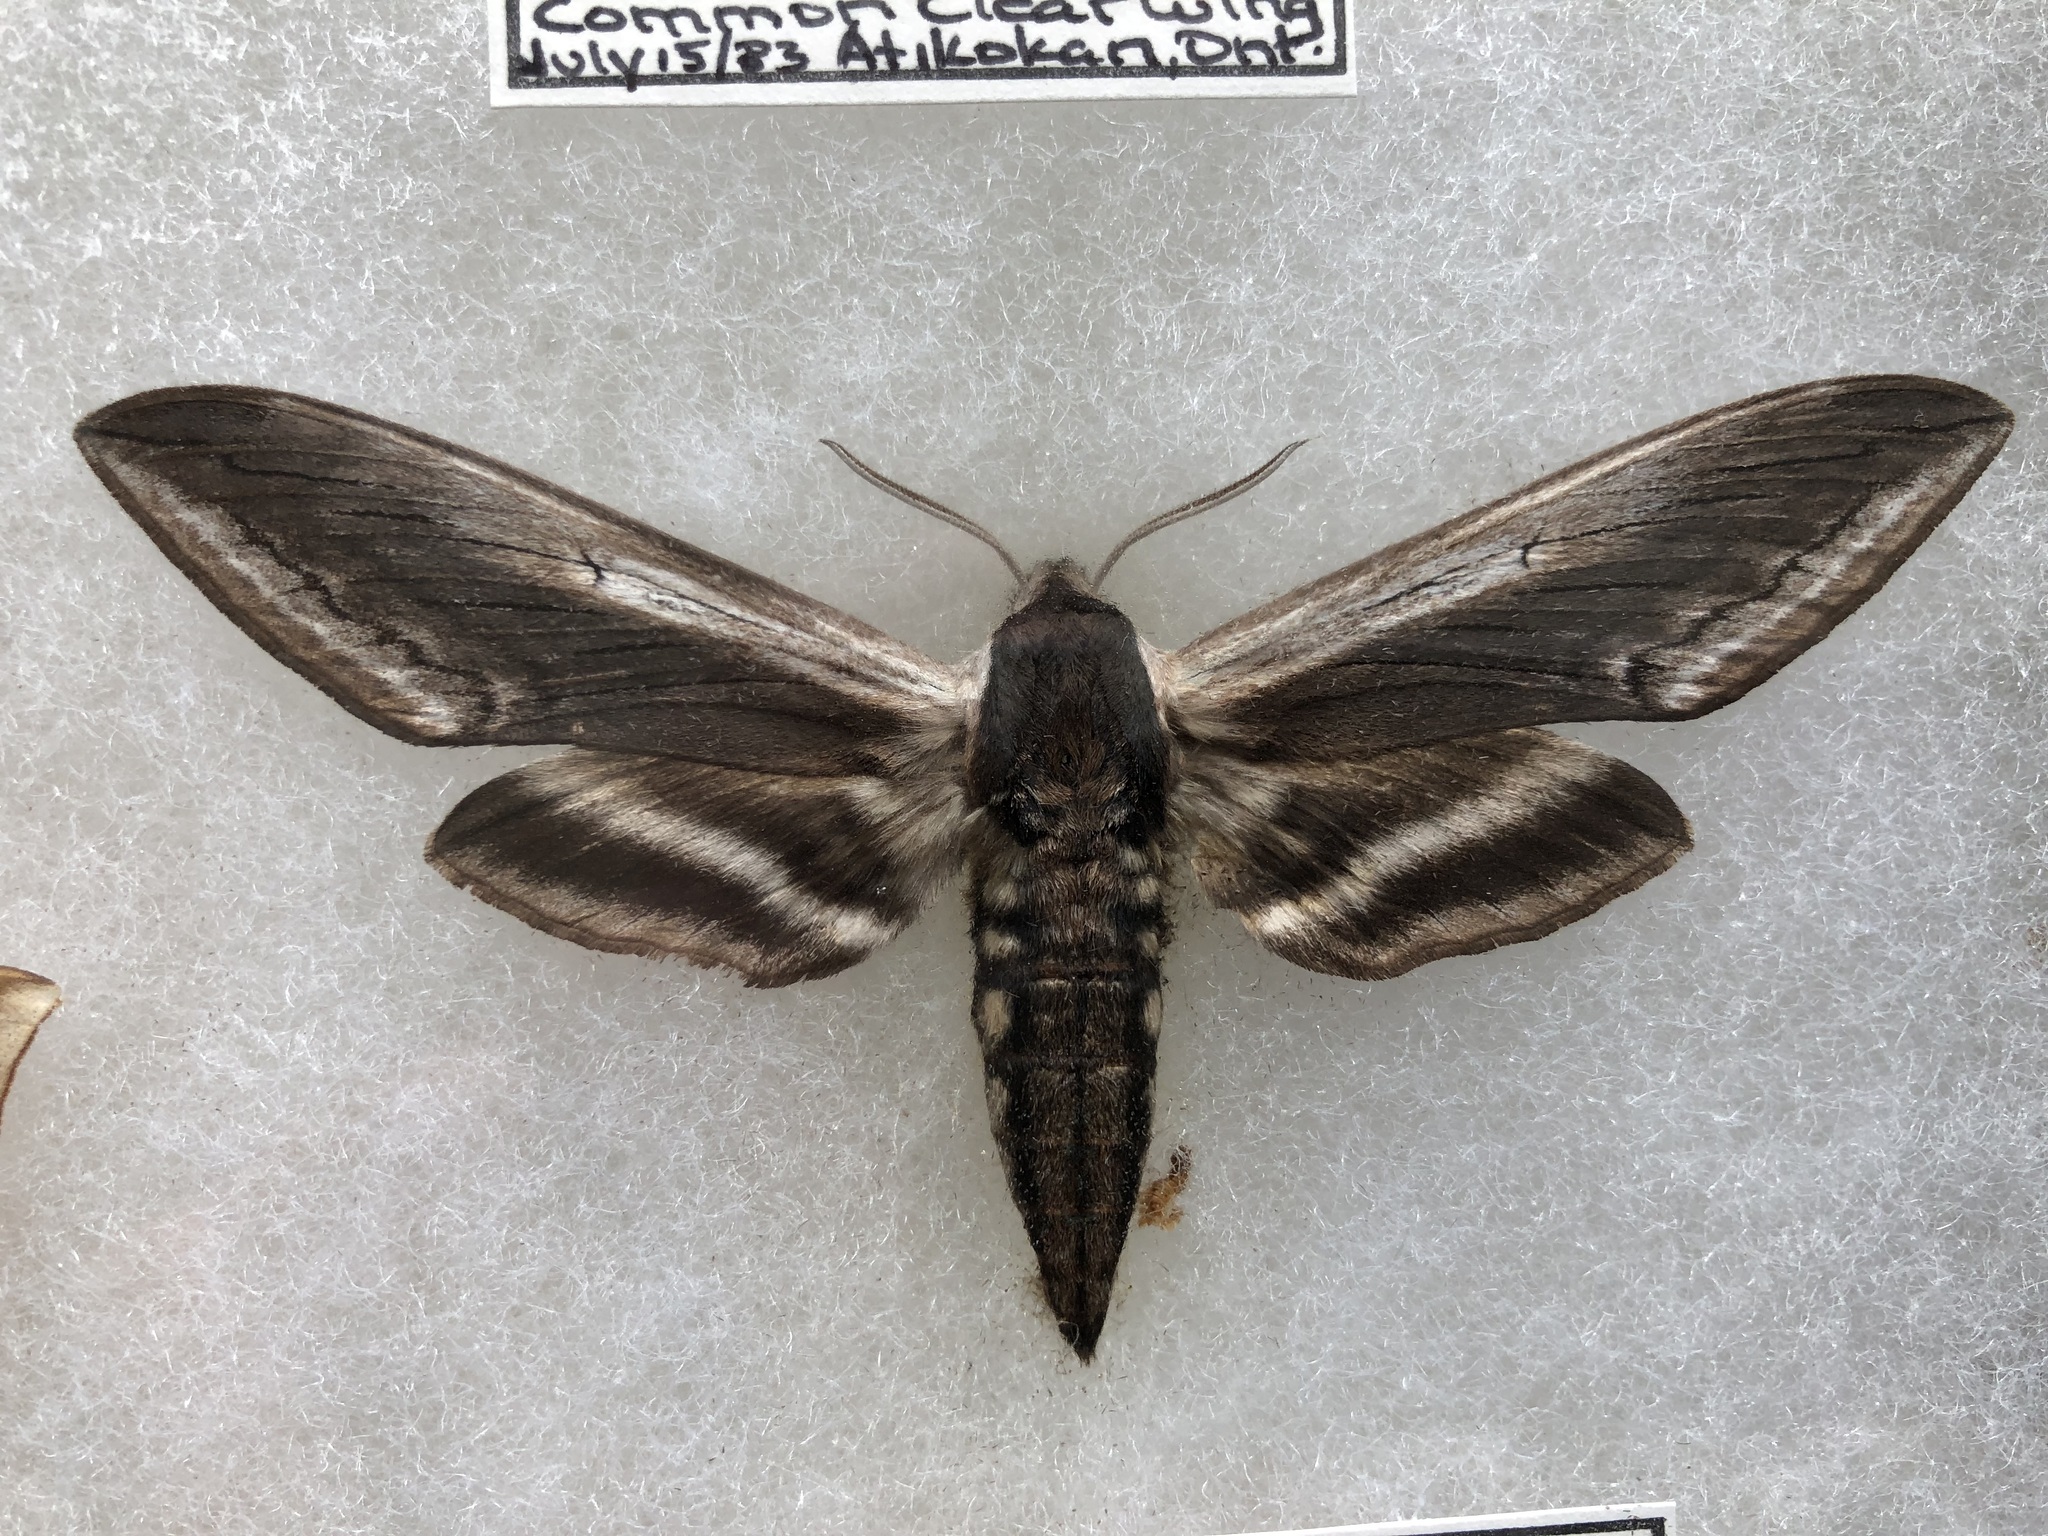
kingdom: Animalia
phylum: Arthropoda
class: Insecta
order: Lepidoptera
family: Sphingidae
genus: Sphinx
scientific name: Sphinx drupiferarum
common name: Wild cherry sphinx
